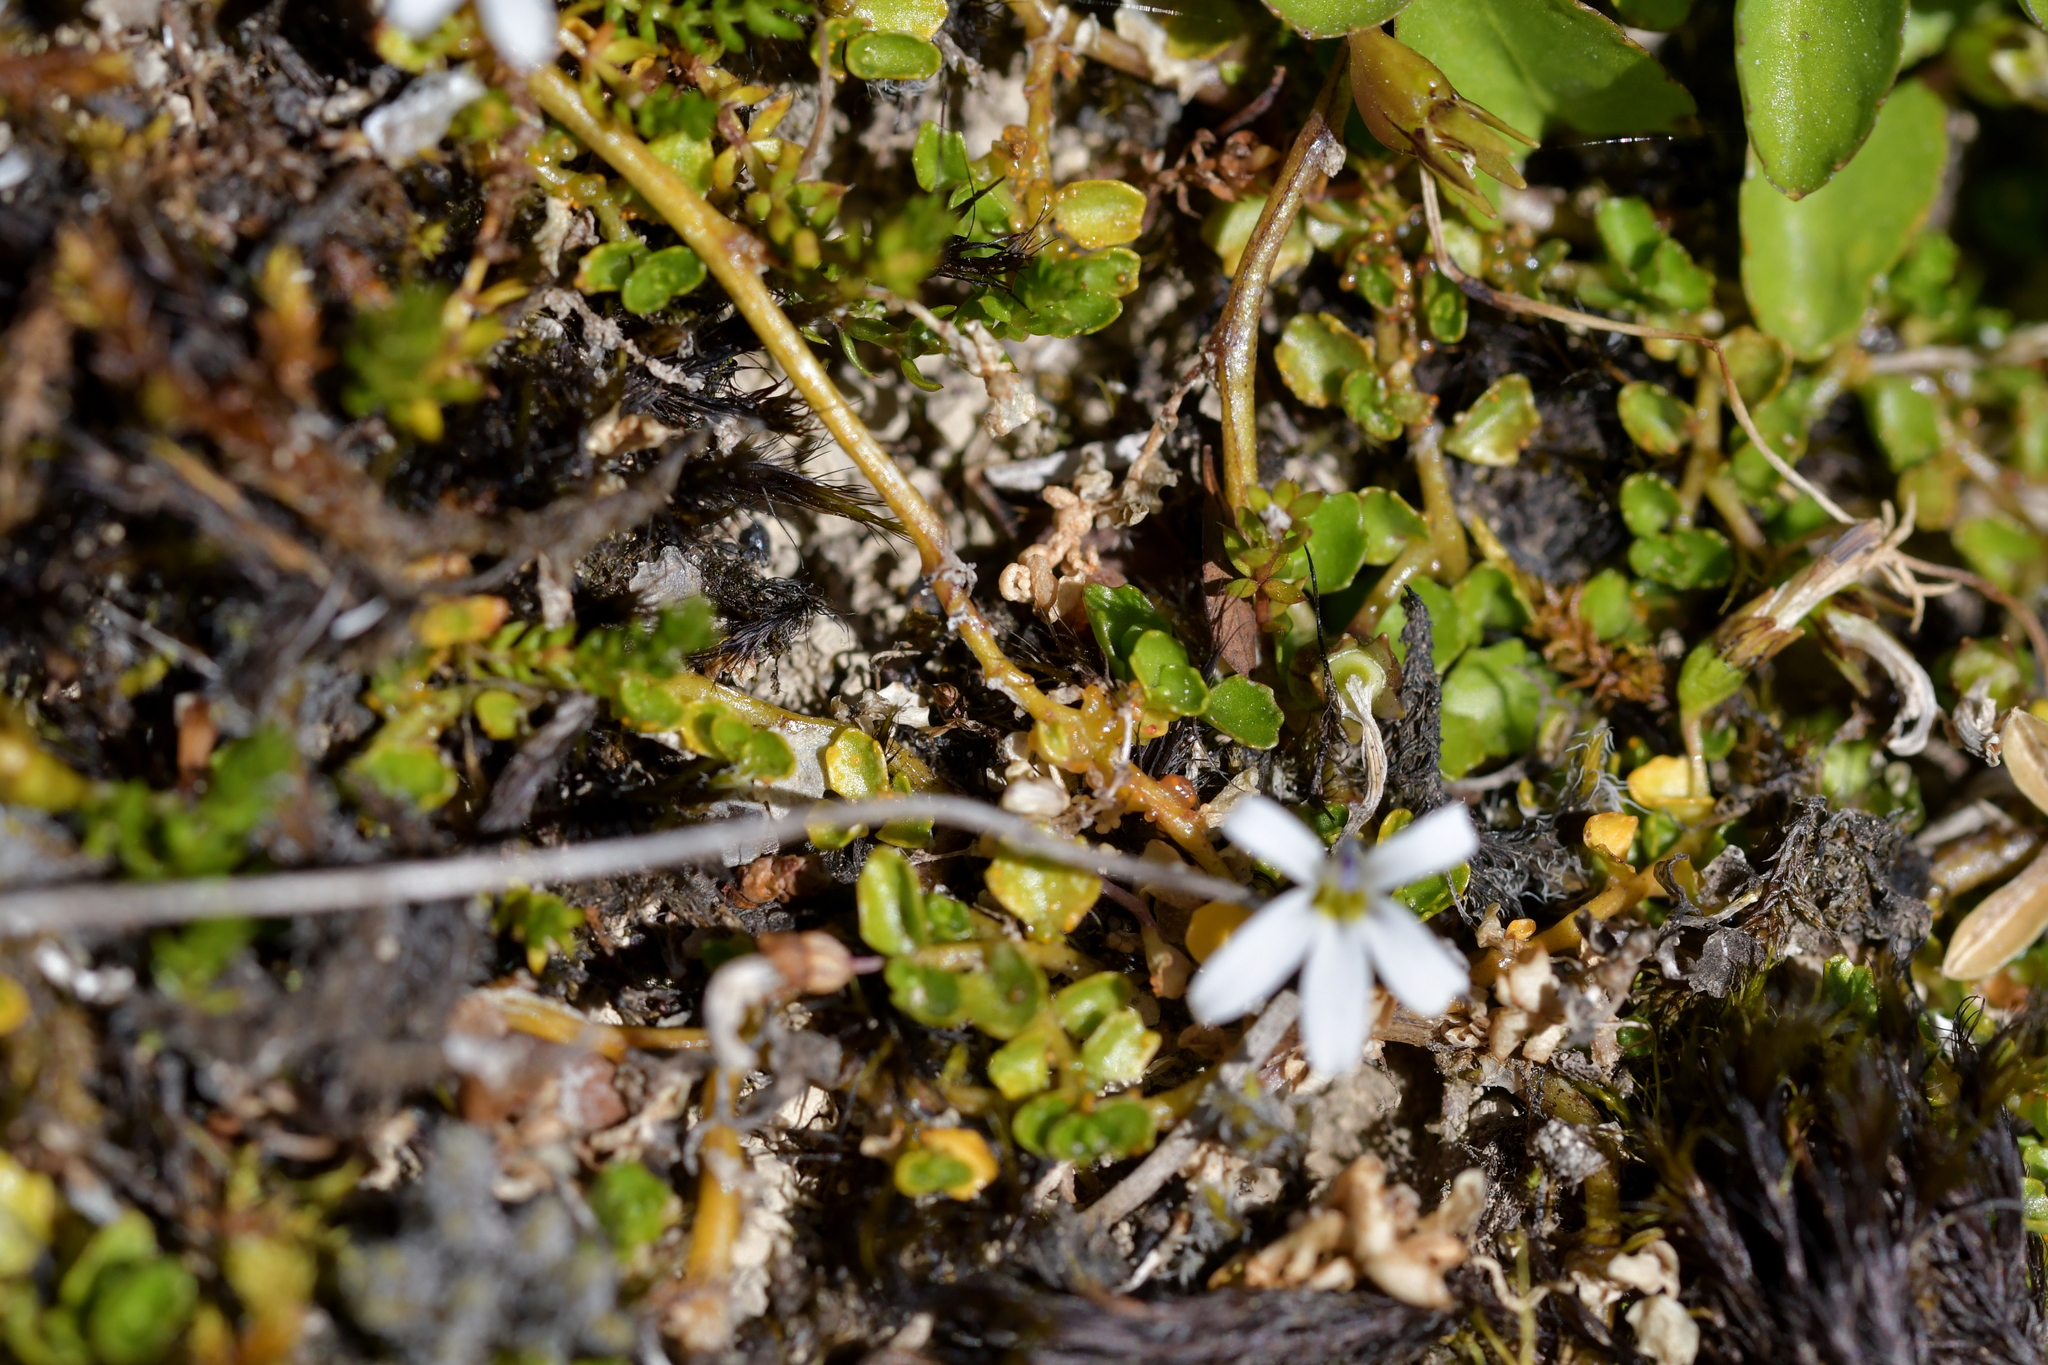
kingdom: Plantae
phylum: Tracheophyta
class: Magnoliopsida
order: Asterales
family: Campanulaceae
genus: Lobelia
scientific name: Lobelia angulata
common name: Lawn lobelia
